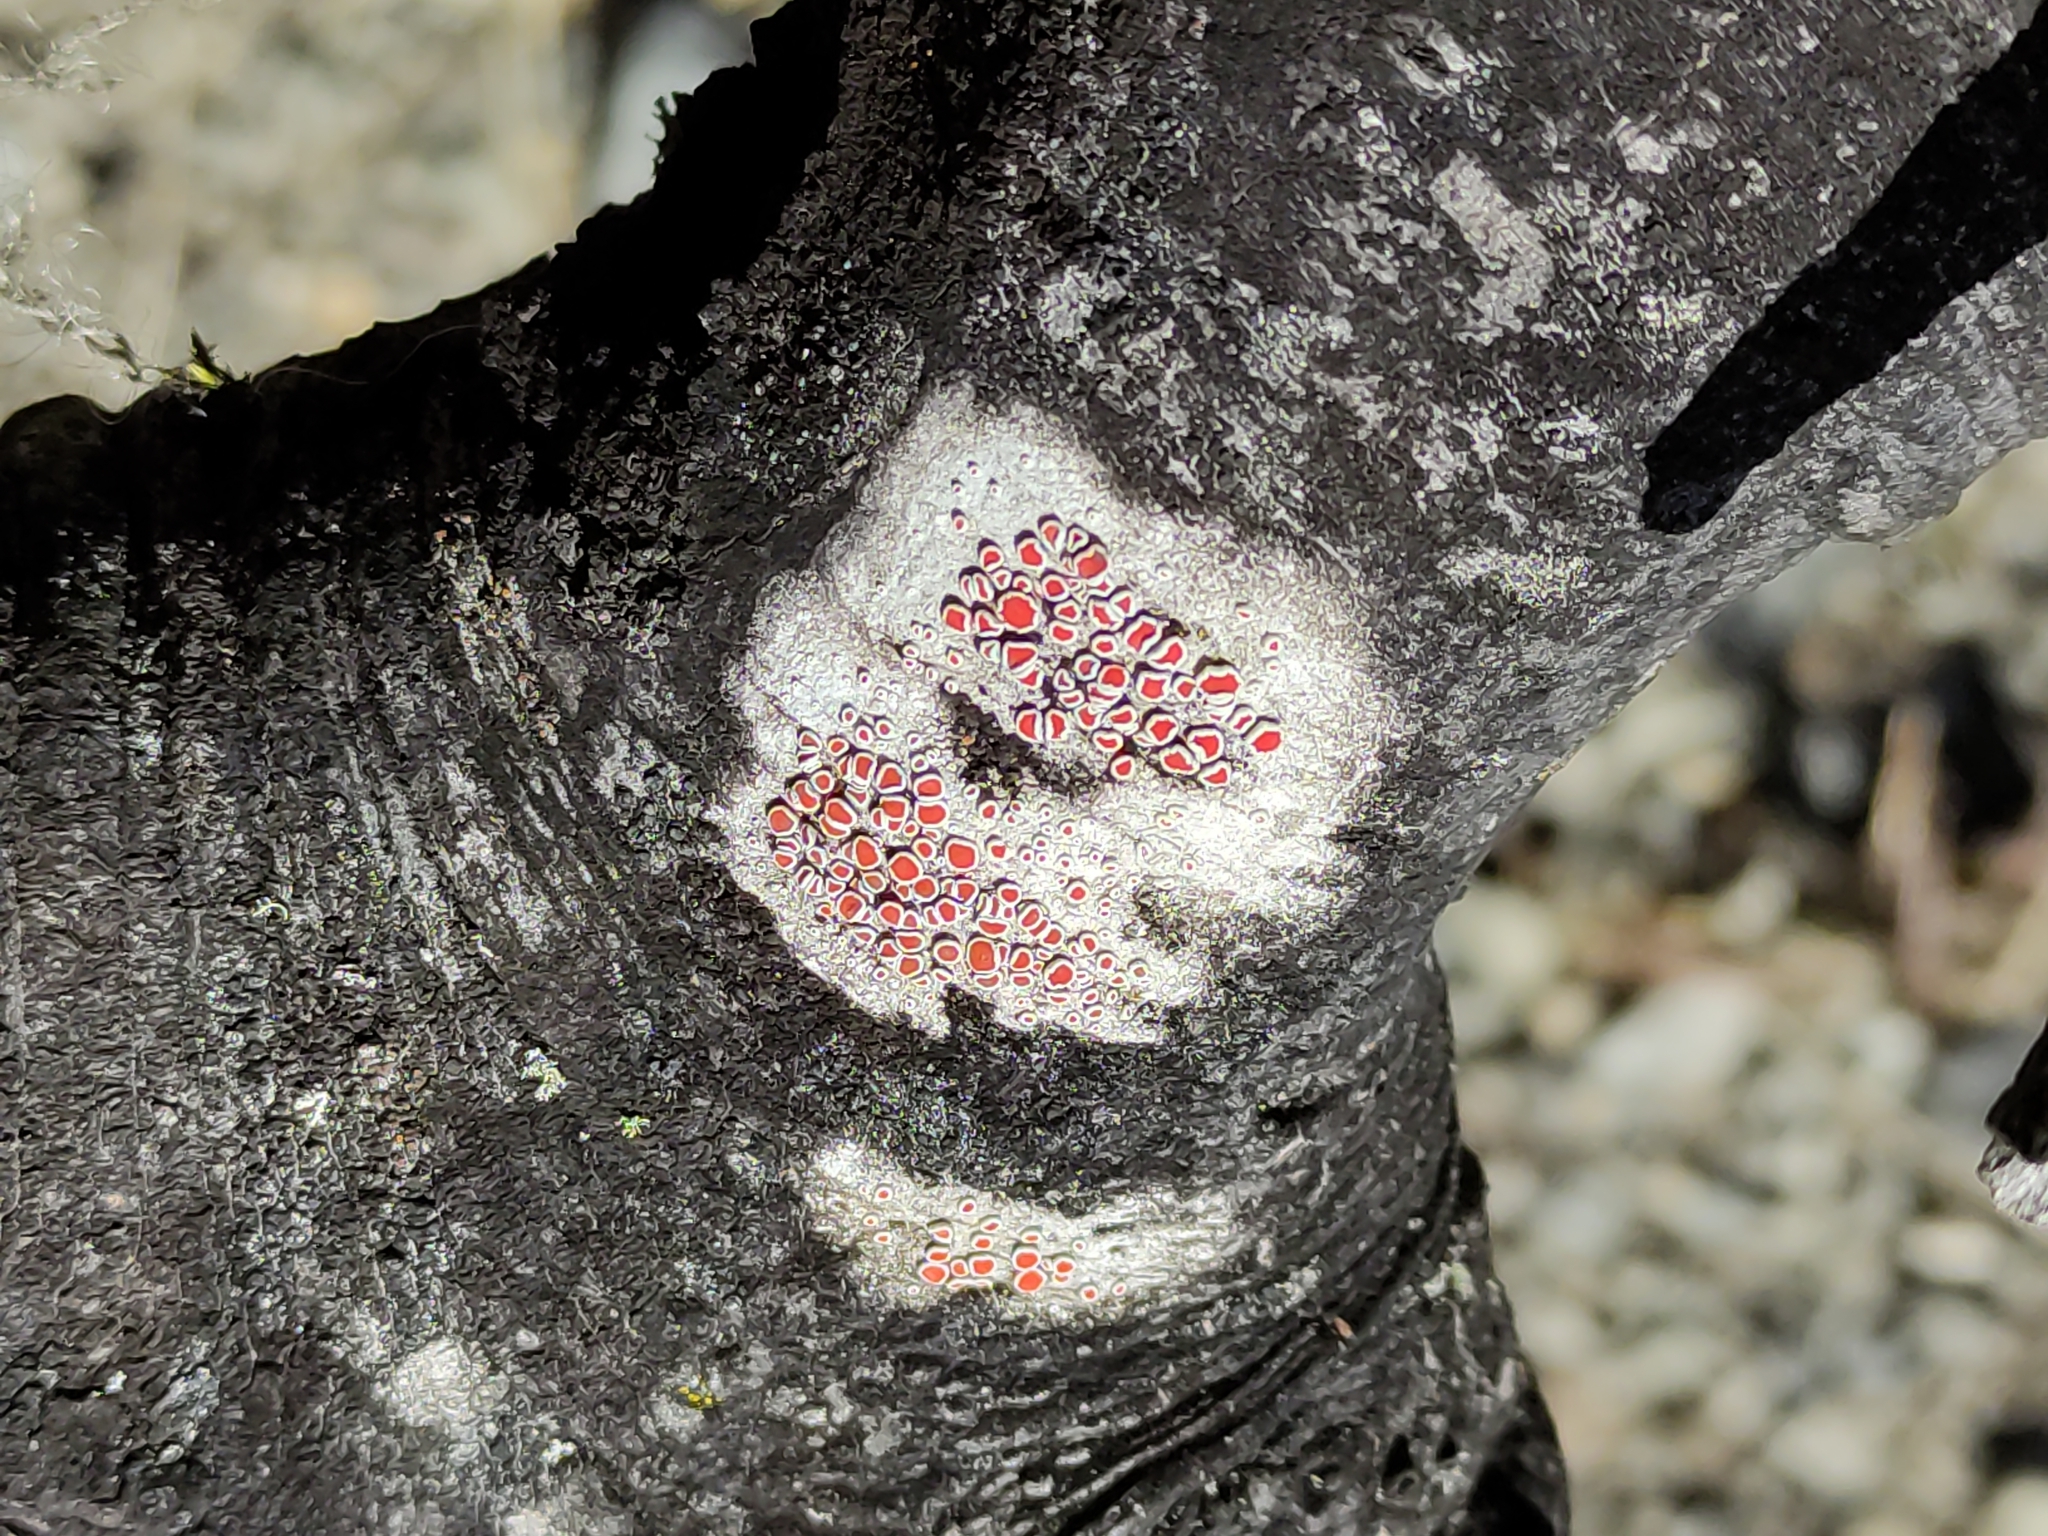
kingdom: Fungi
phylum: Ascomycota
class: Lecanoromycetes
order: Lecanorales
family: Haematommataceae
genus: Haematomma
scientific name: Haematomma babingtonii
